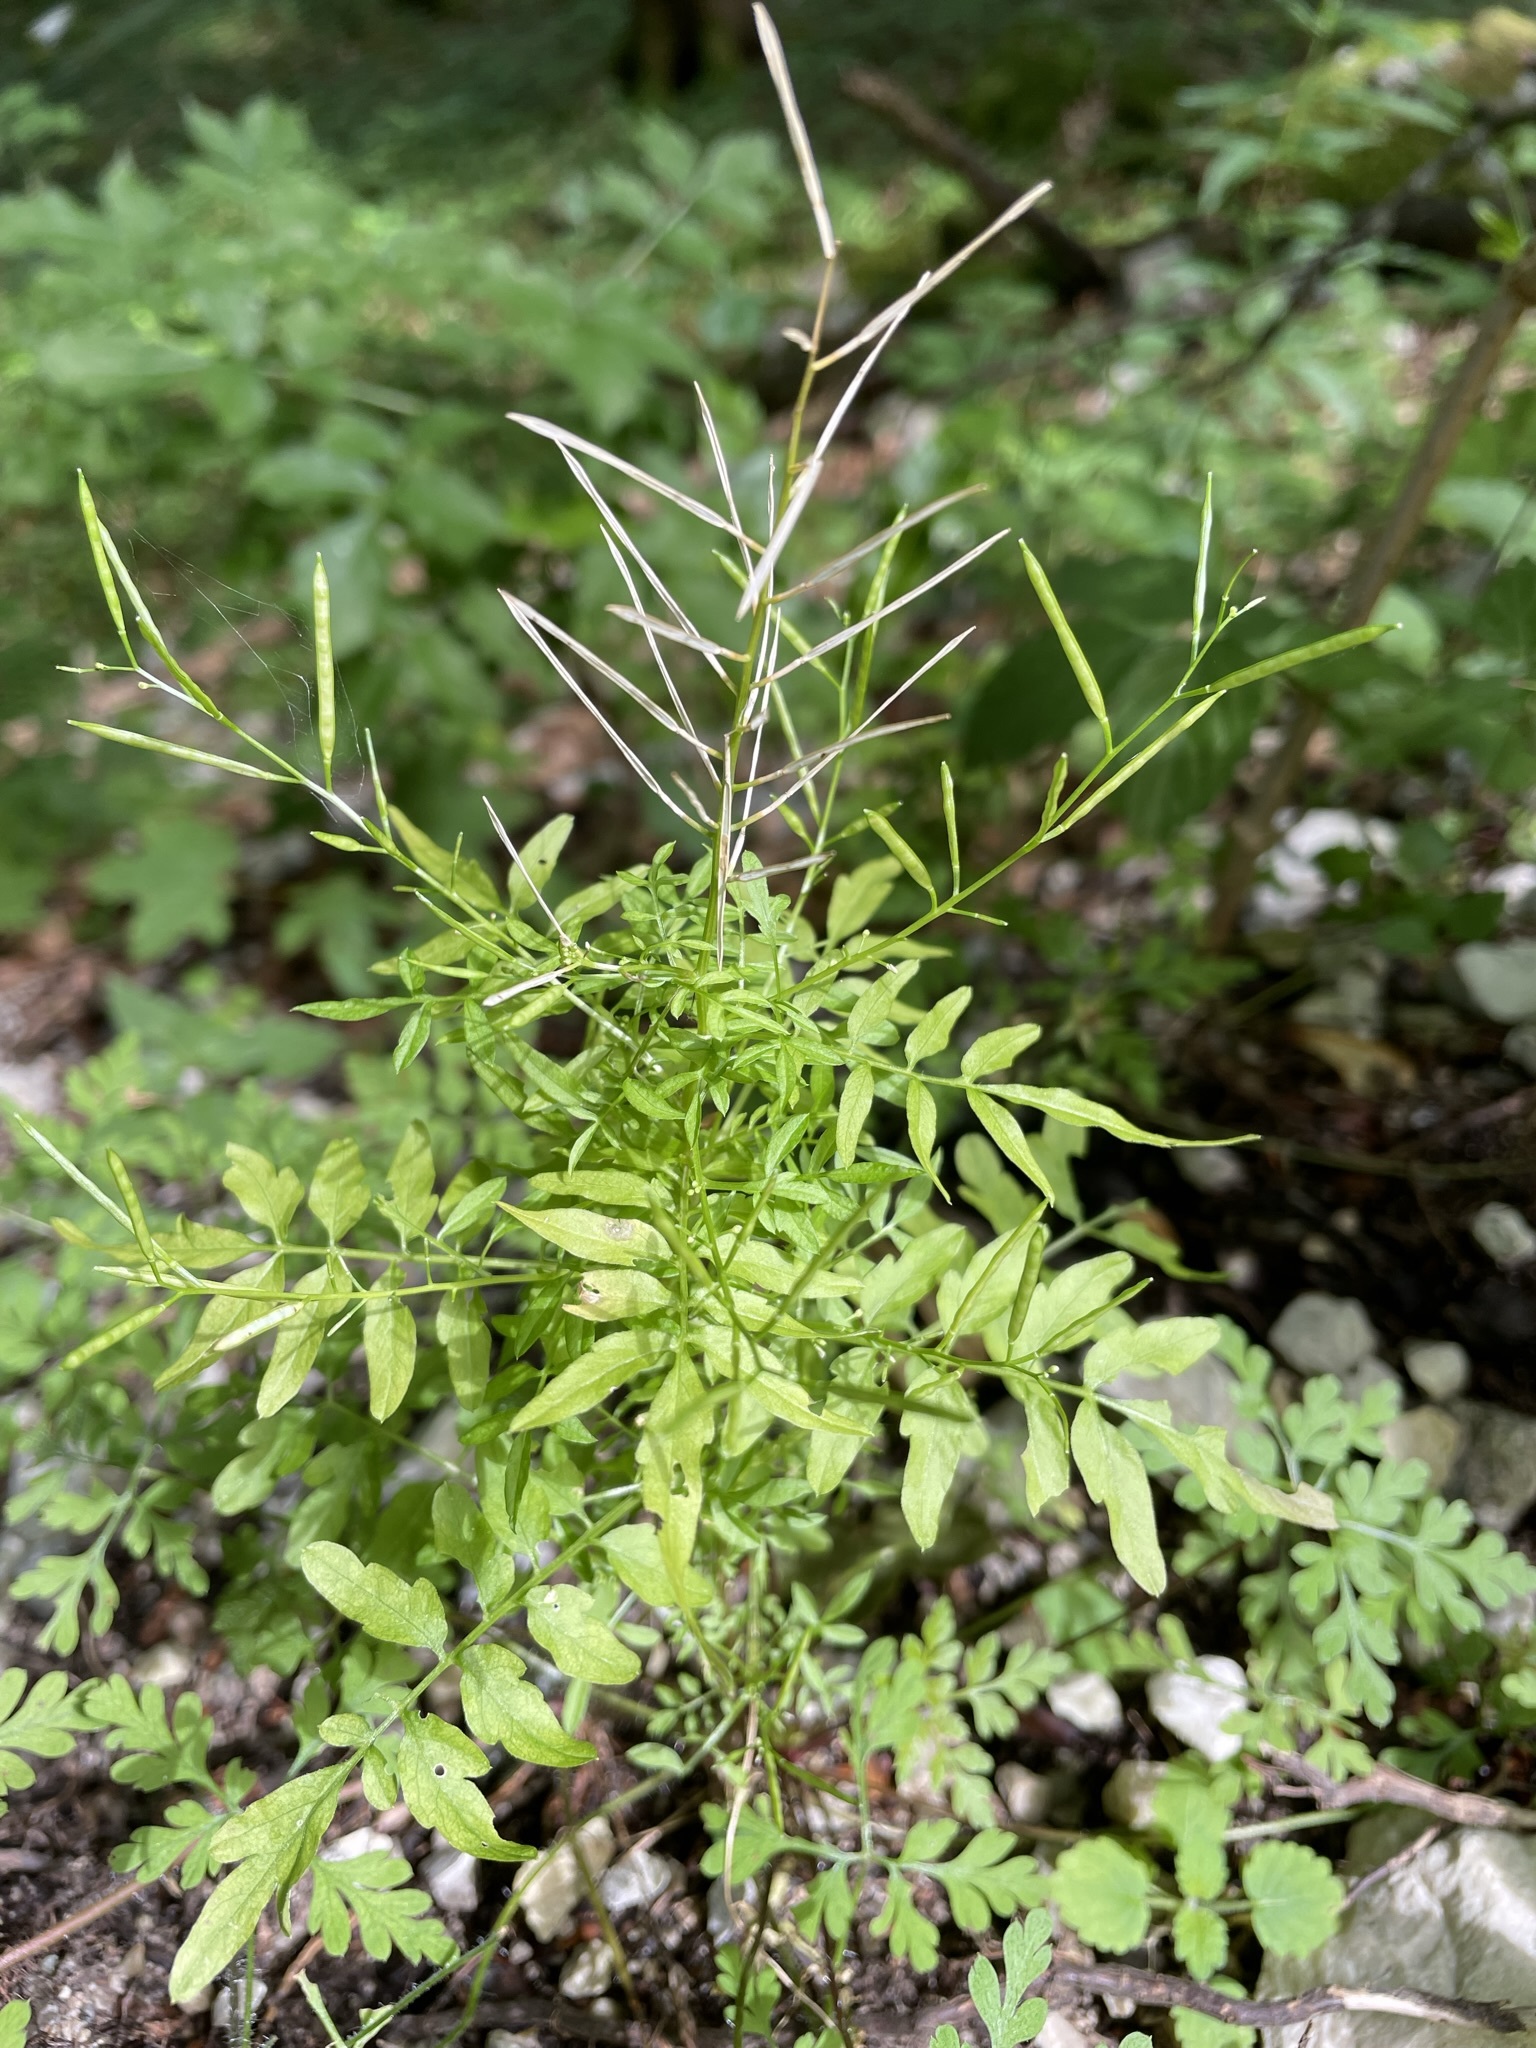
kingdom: Plantae
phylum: Tracheophyta
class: Magnoliopsida
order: Brassicales
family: Brassicaceae
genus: Cardamine
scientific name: Cardamine impatiens
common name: Narrow-leaved bitter-cress
